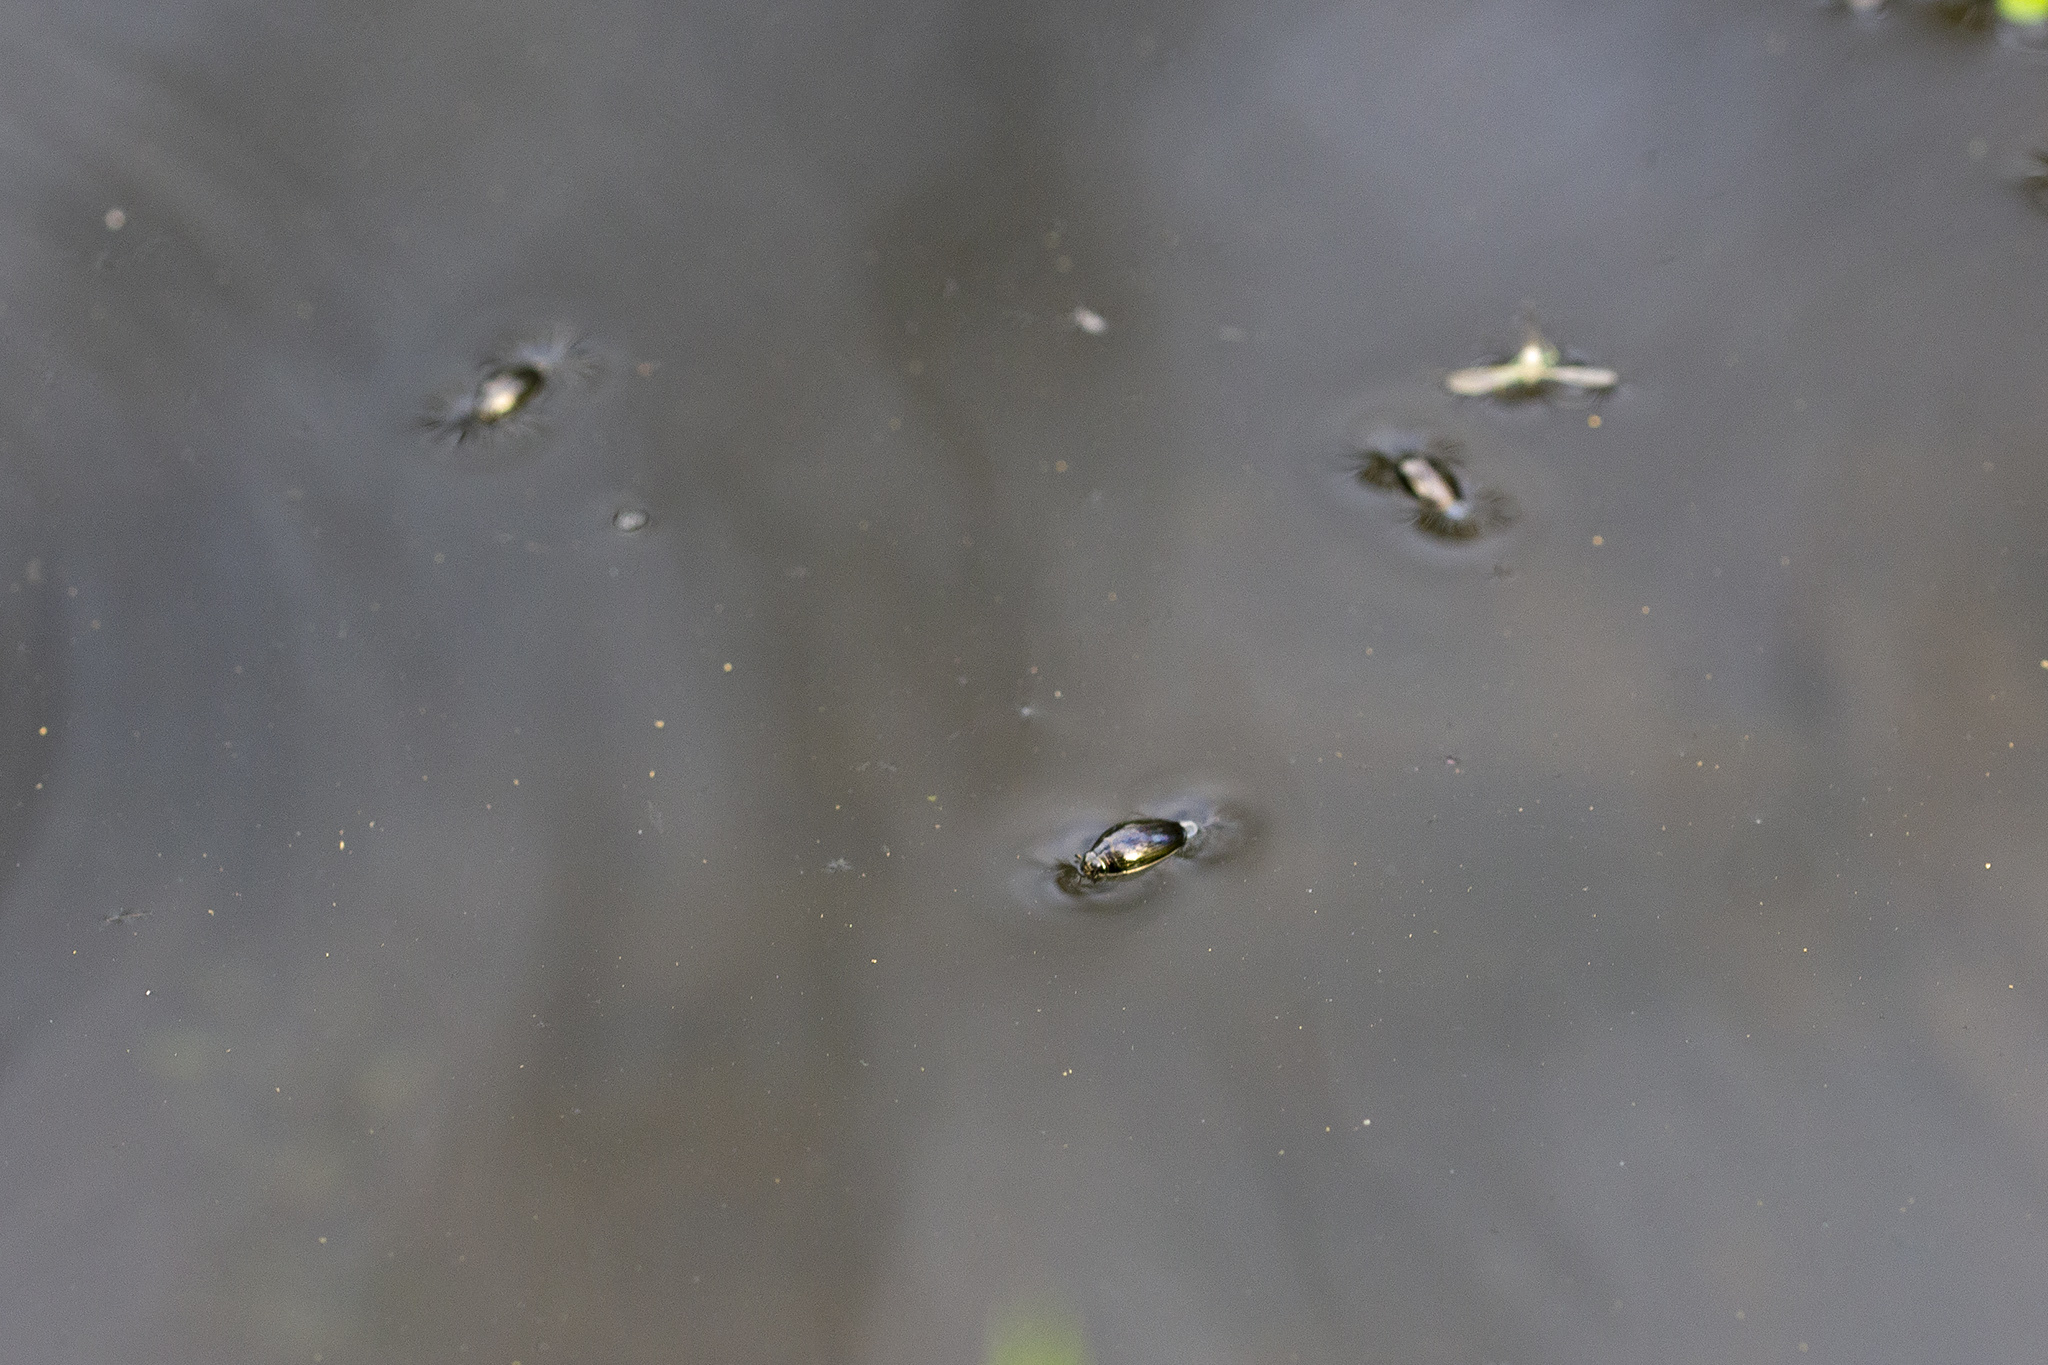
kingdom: Animalia
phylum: Arthropoda
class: Insecta
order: Coleoptera
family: Gyrinidae
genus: Gyrinus
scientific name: Gyrinus
